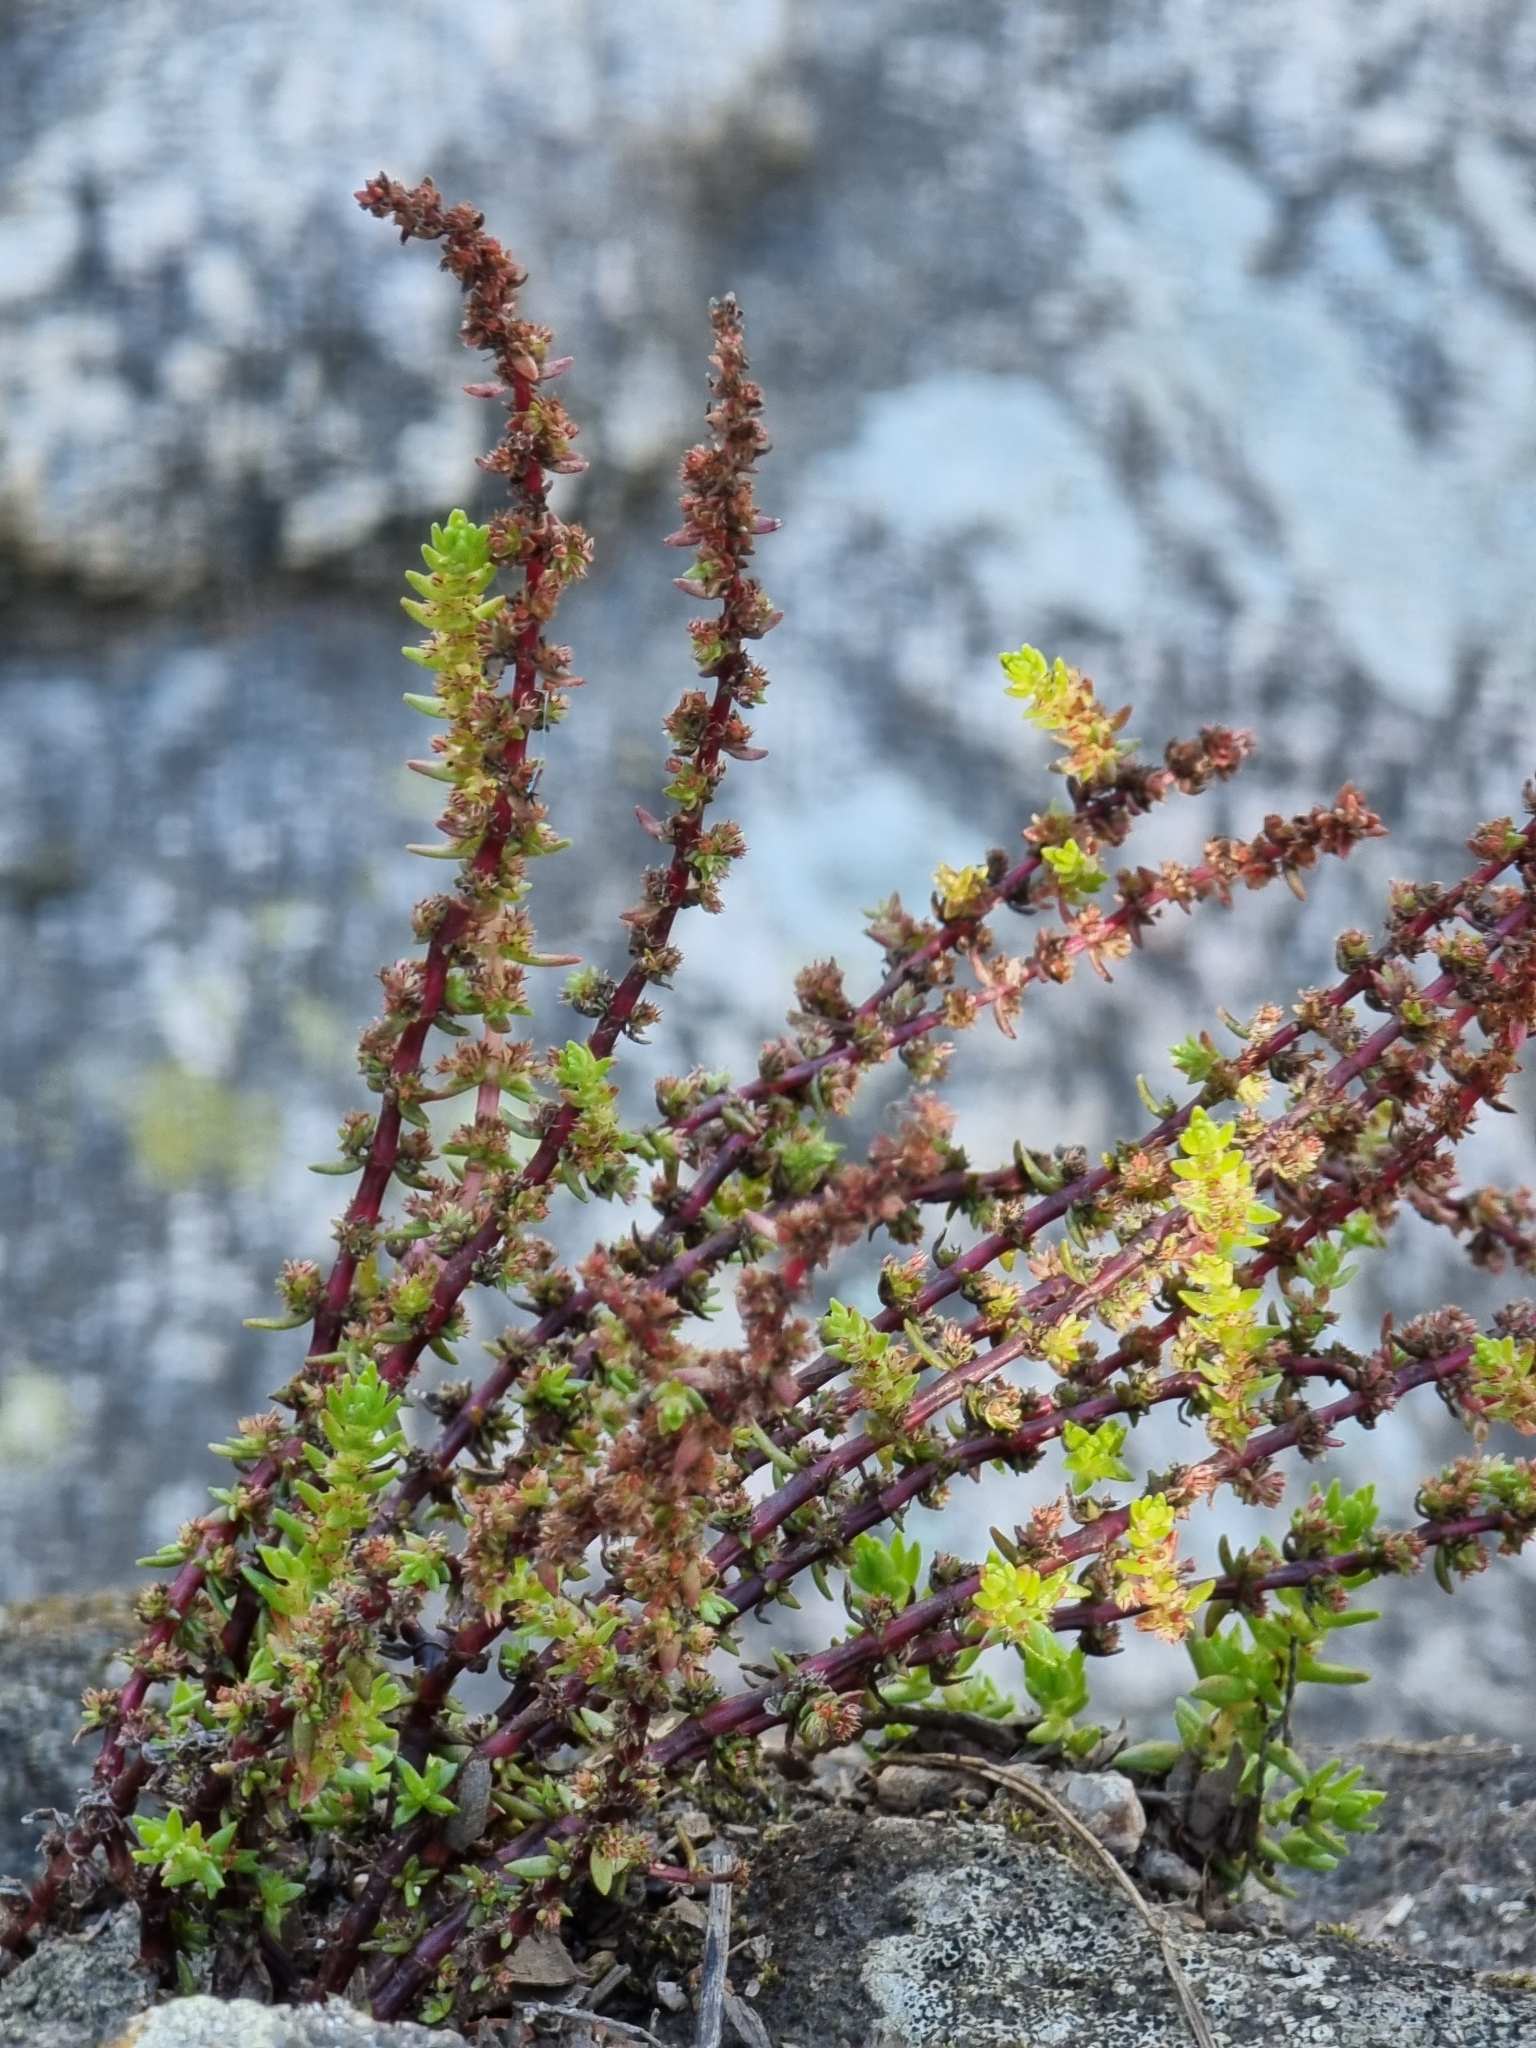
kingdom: Plantae
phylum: Tracheophyta
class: Magnoliopsida
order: Saxifragales
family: Crassulaceae
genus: Crassula
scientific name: Crassula sieberiana
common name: Siberian pygmyweed
